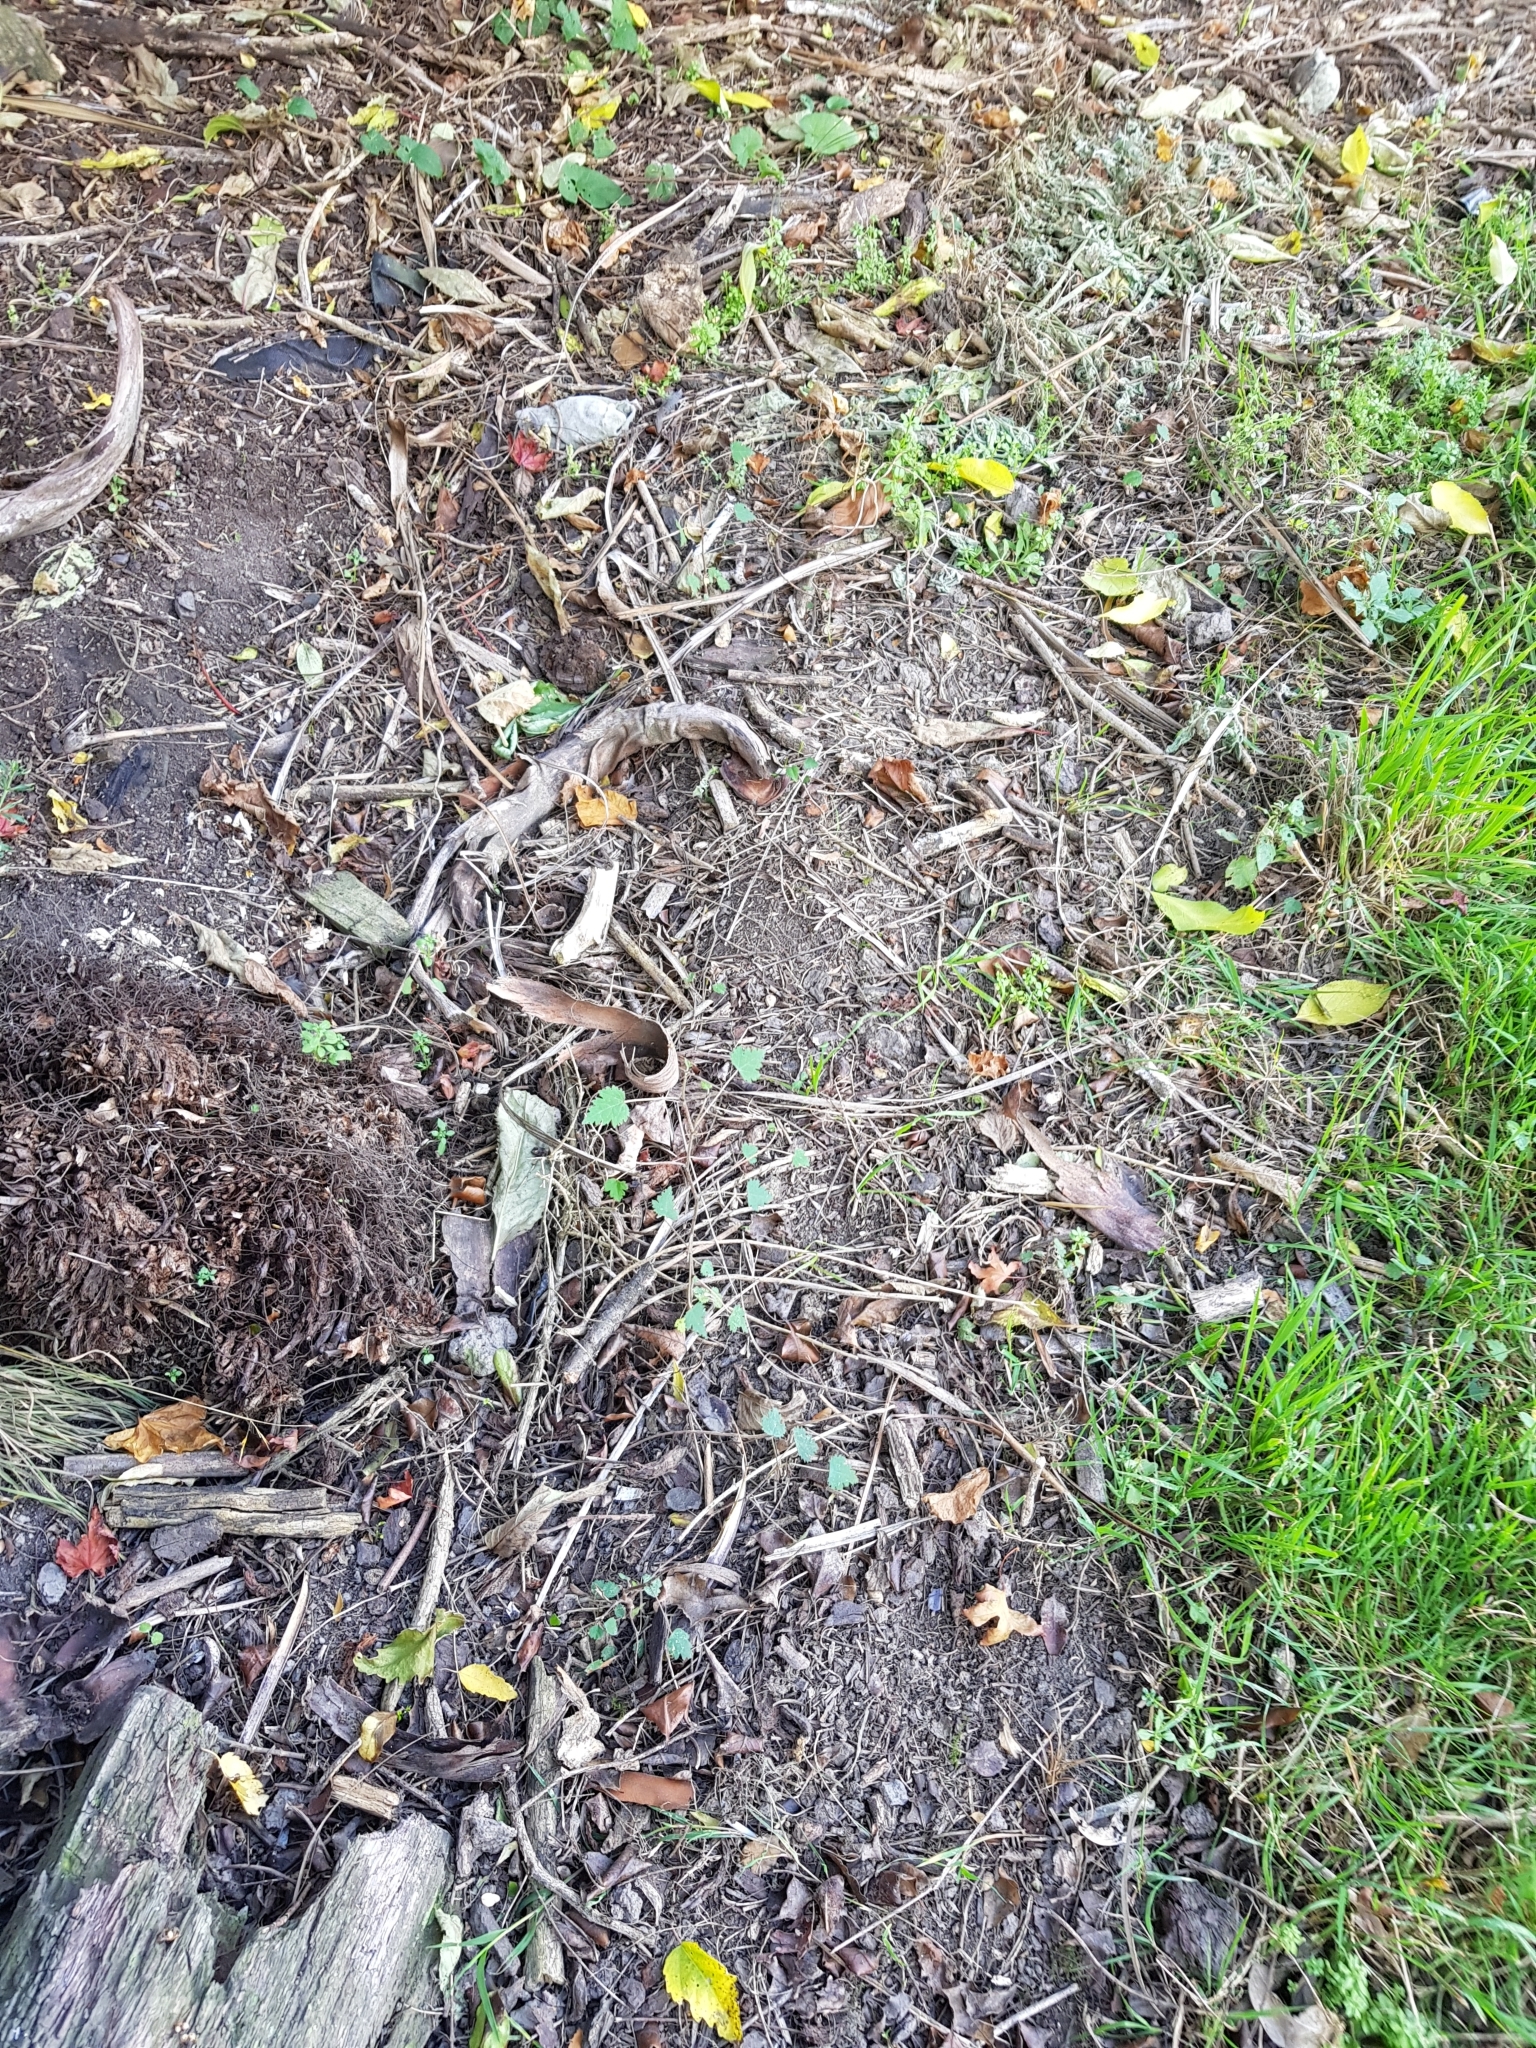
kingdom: Plantae
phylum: Tracheophyta
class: Magnoliopsida
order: Malvales
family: Malvaceae
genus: Plagianthus
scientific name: Plagianthus regius
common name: Manatu
